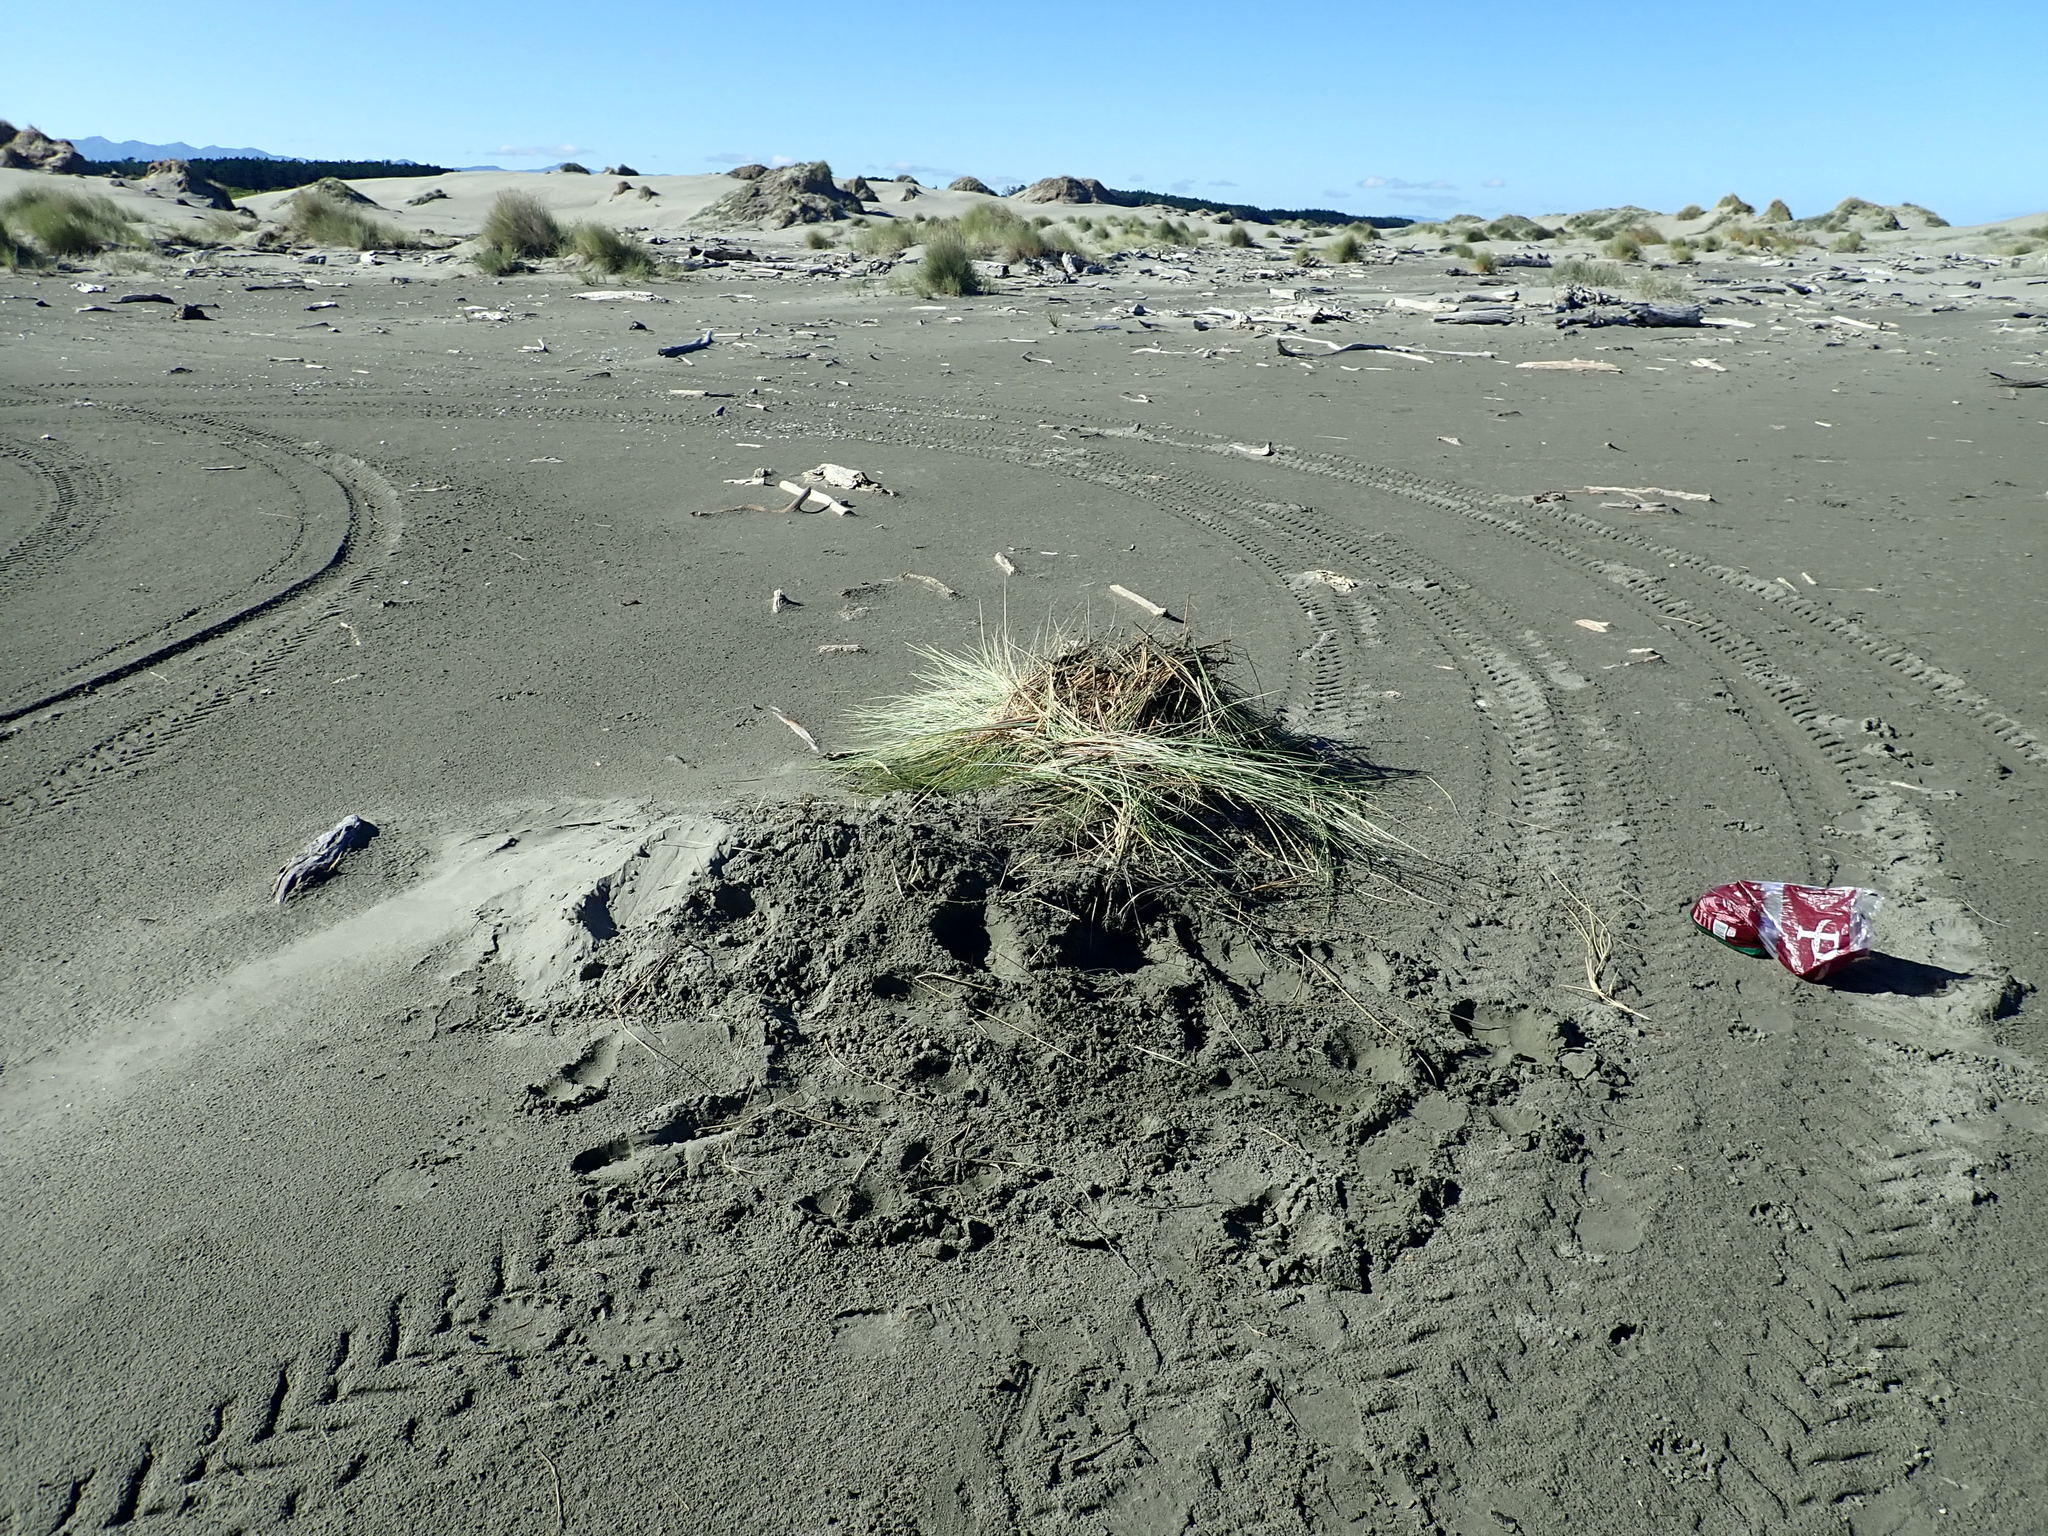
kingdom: Plantae
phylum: Tracheophyta
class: Liliopsida
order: Poales
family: Poaceae
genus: Calamagrostis
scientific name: Calamagrostis arenaria
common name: European beachgrass
